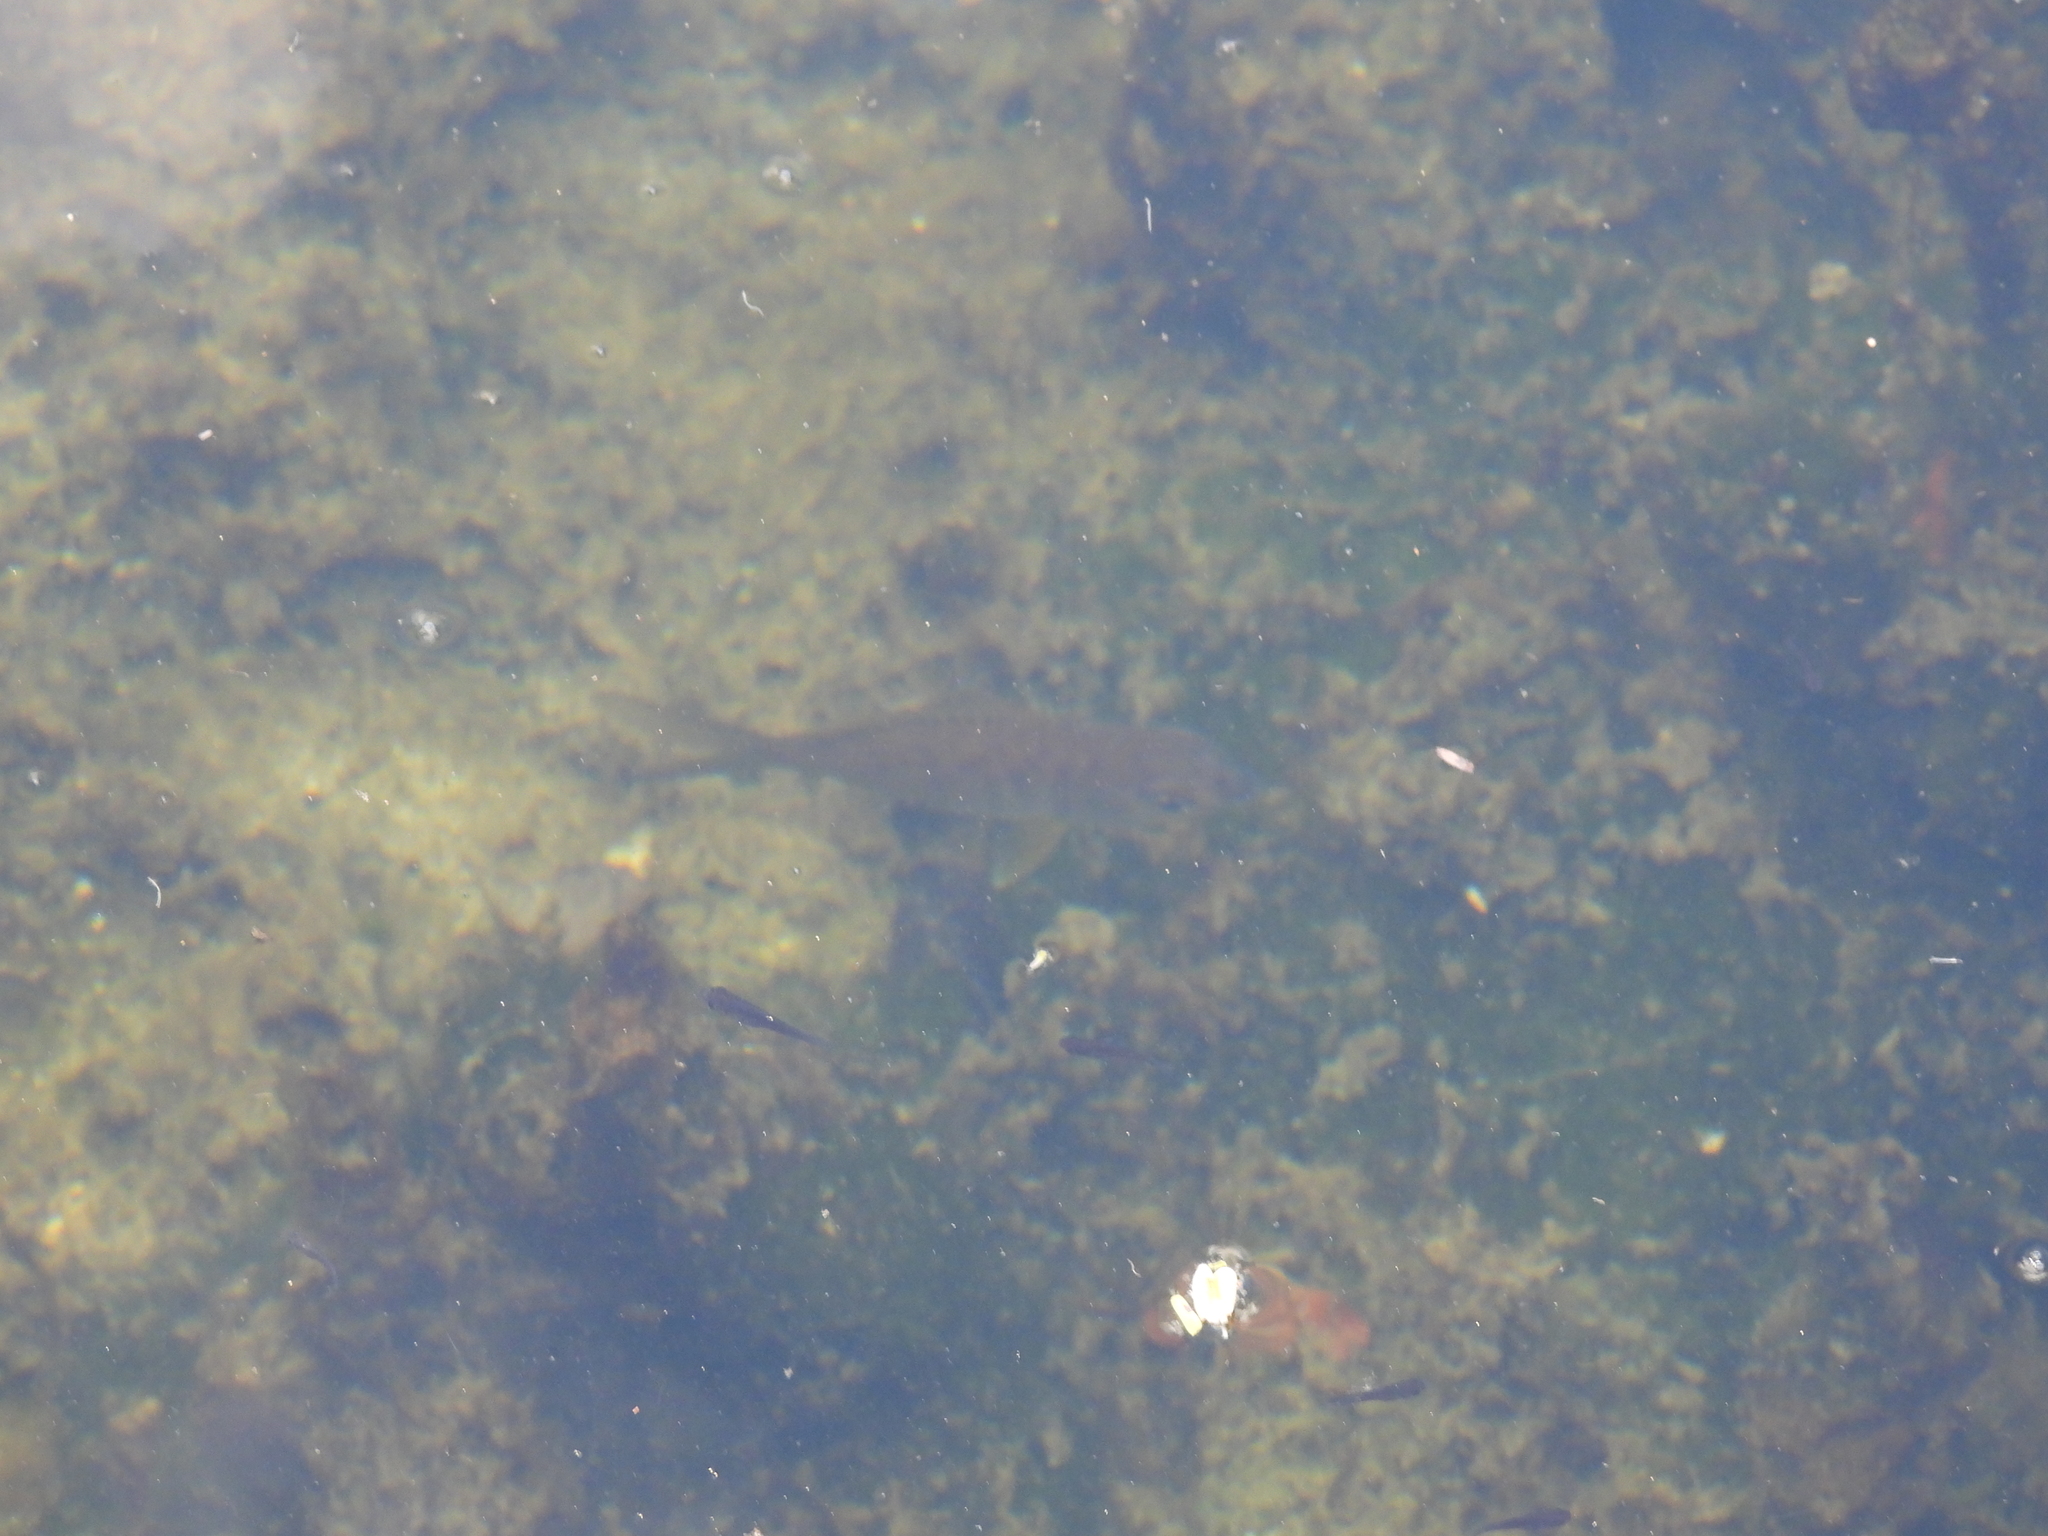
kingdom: Animalia
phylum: Chordata
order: Perciformes
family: Gerreidae
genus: Gerres
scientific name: Gerres cinereus
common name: Hedow
